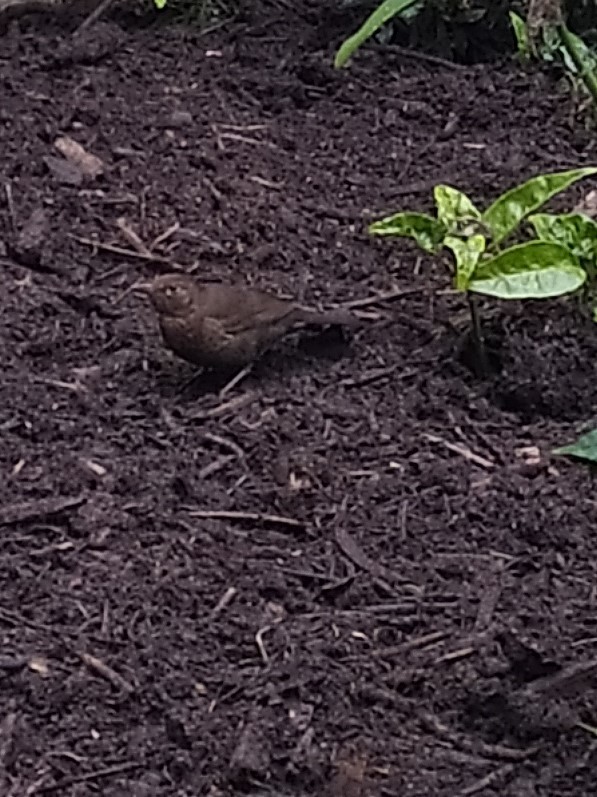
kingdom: Animalia
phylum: Chordata
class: Aves
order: Passeriformes
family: Turdidae
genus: Turdus
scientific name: Turdus merula
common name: Common blackbird
